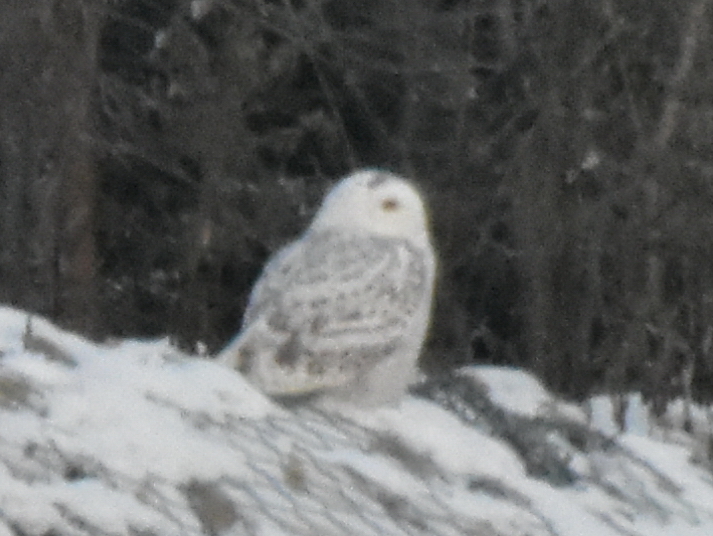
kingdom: Animalia
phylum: Chordata
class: Aves
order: Strigiformes
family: Strigidae
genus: Bubo
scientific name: Bubo scandiacus
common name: Snowy owl
